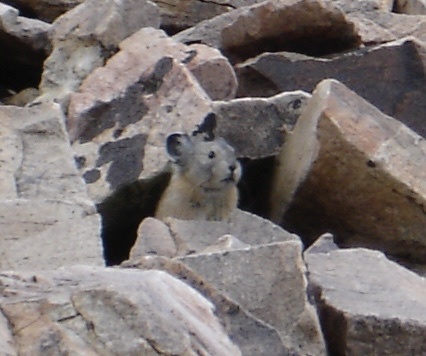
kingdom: Animalia
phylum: Chordata
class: Mammalia
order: Lagomorpha
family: Ochotonidae
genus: Ochotona
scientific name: Ochotona princeps
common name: American pika
